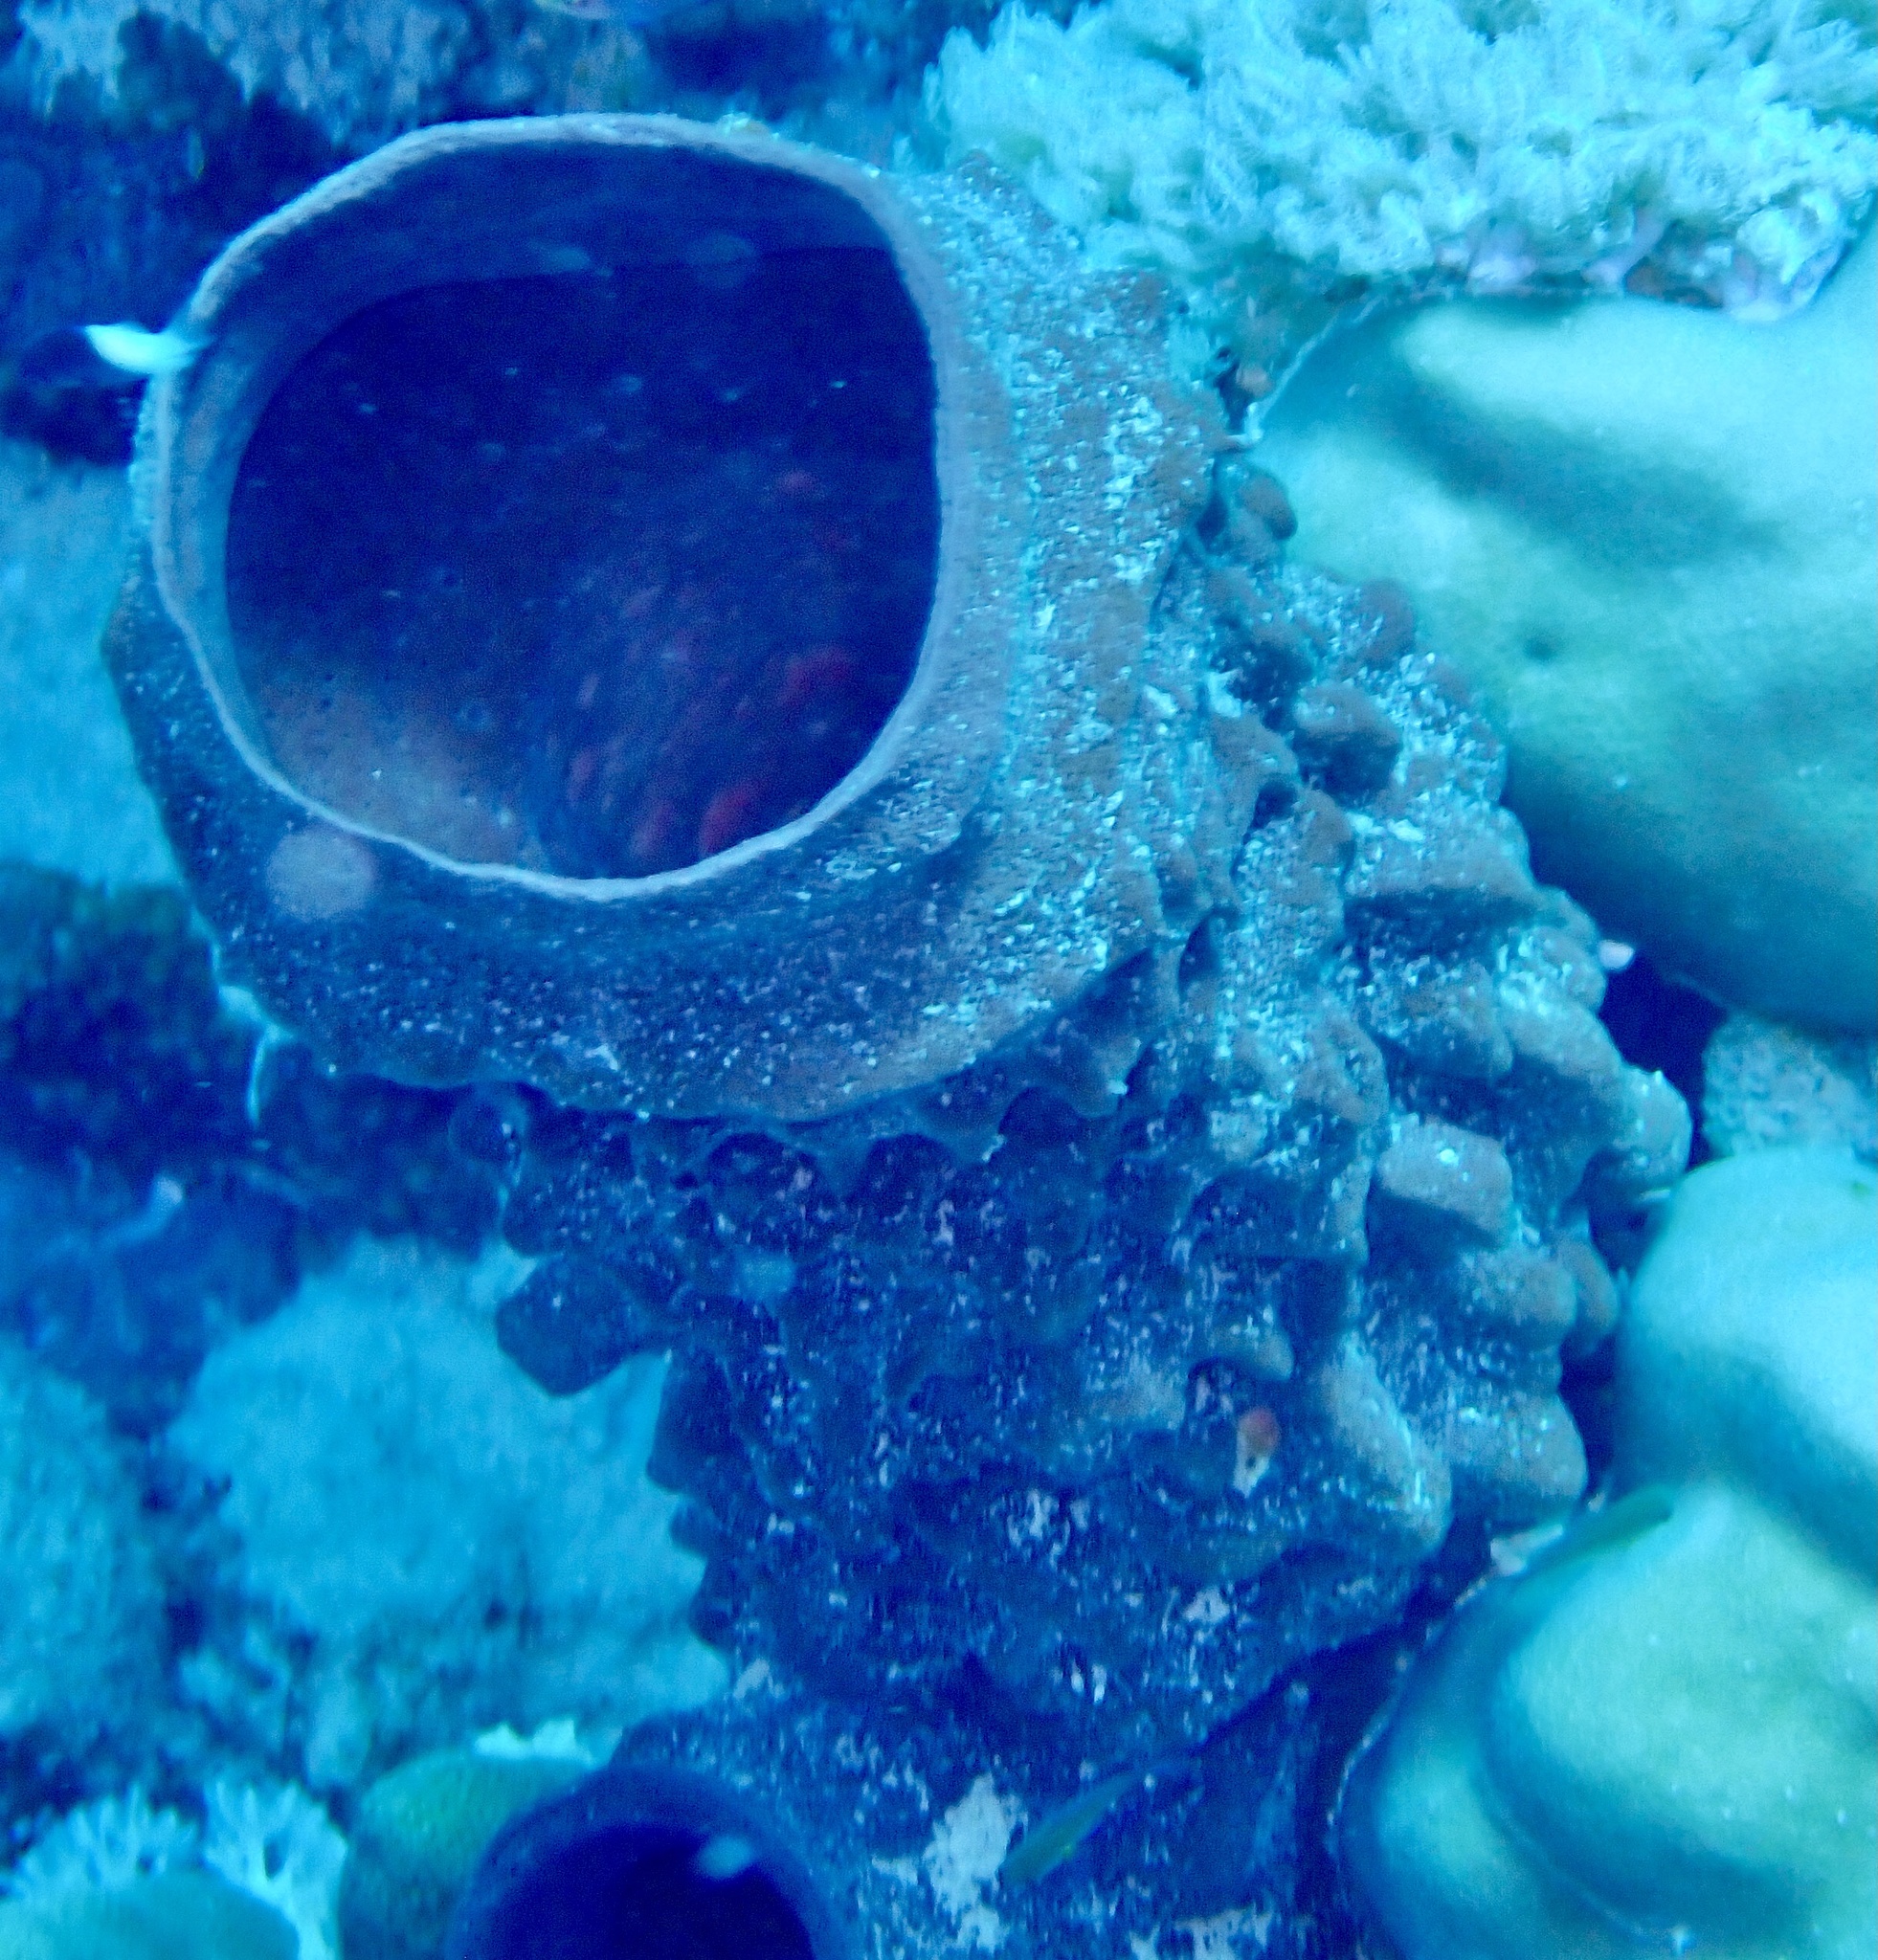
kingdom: Animalia
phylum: Porifera
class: Demospongiae
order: Haplosclerida
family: Callyspongiidae
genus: Callyspongia
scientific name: Callyspongia crassa
